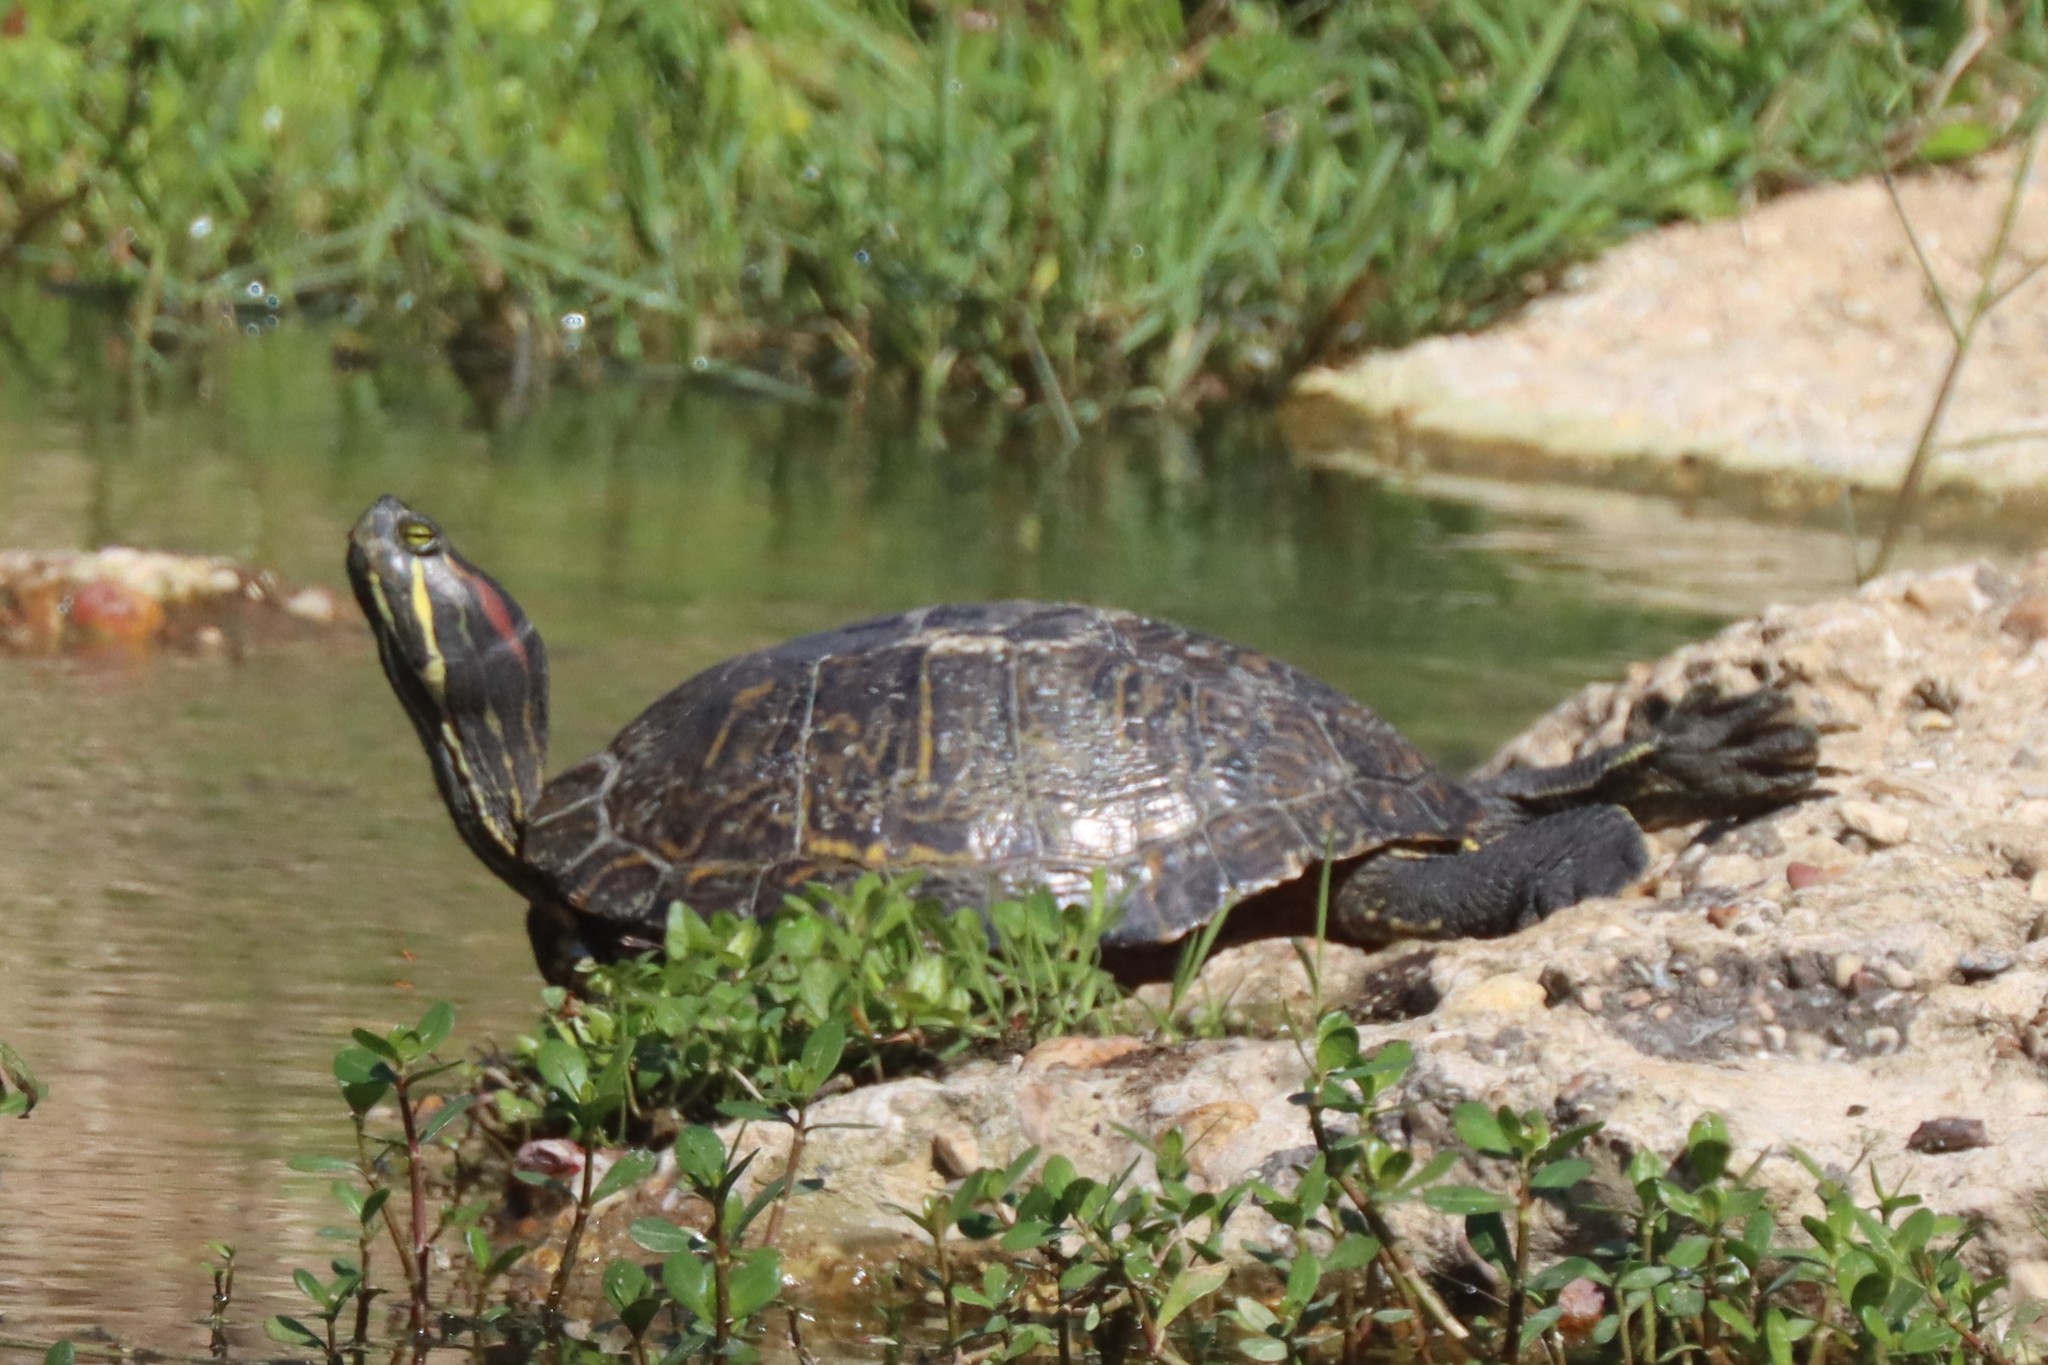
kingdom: Animalia
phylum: Chordata
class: Testudines
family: Emydidae
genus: Trachemys
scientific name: Trachemys scripta
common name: Slider
